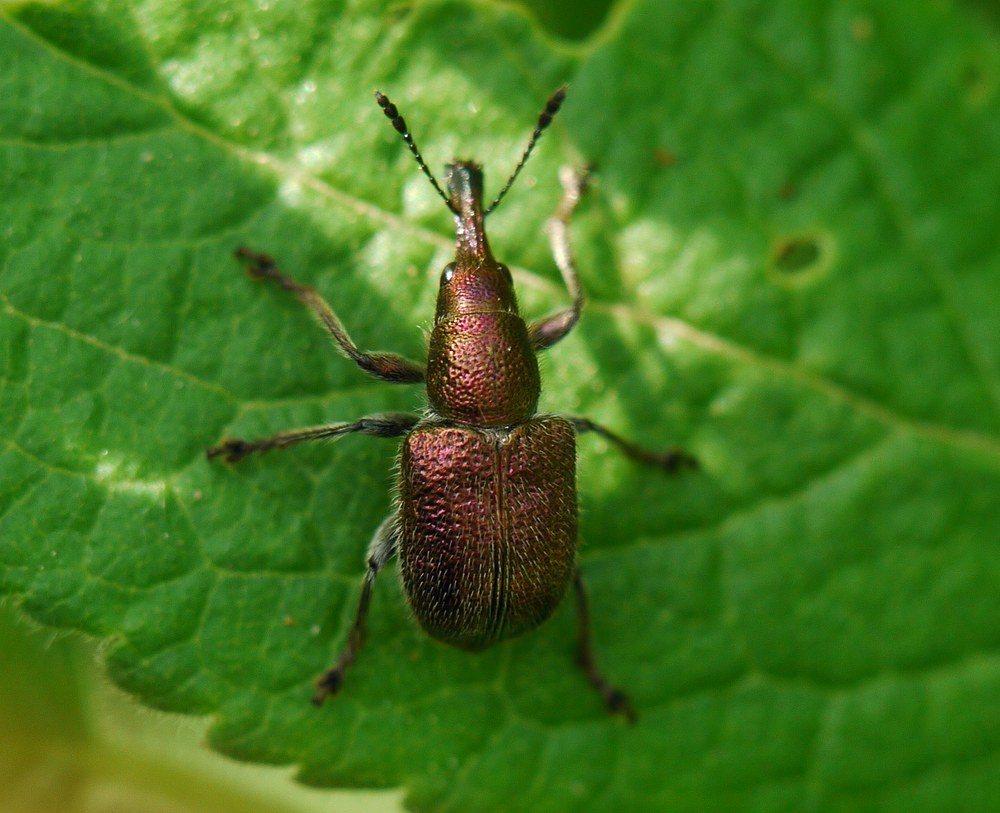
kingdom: Animalia
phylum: Arthropoda
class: Insecta
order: Coleoptera
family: Attelabidae
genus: Rhynchites
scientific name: Rhynchites auratus
